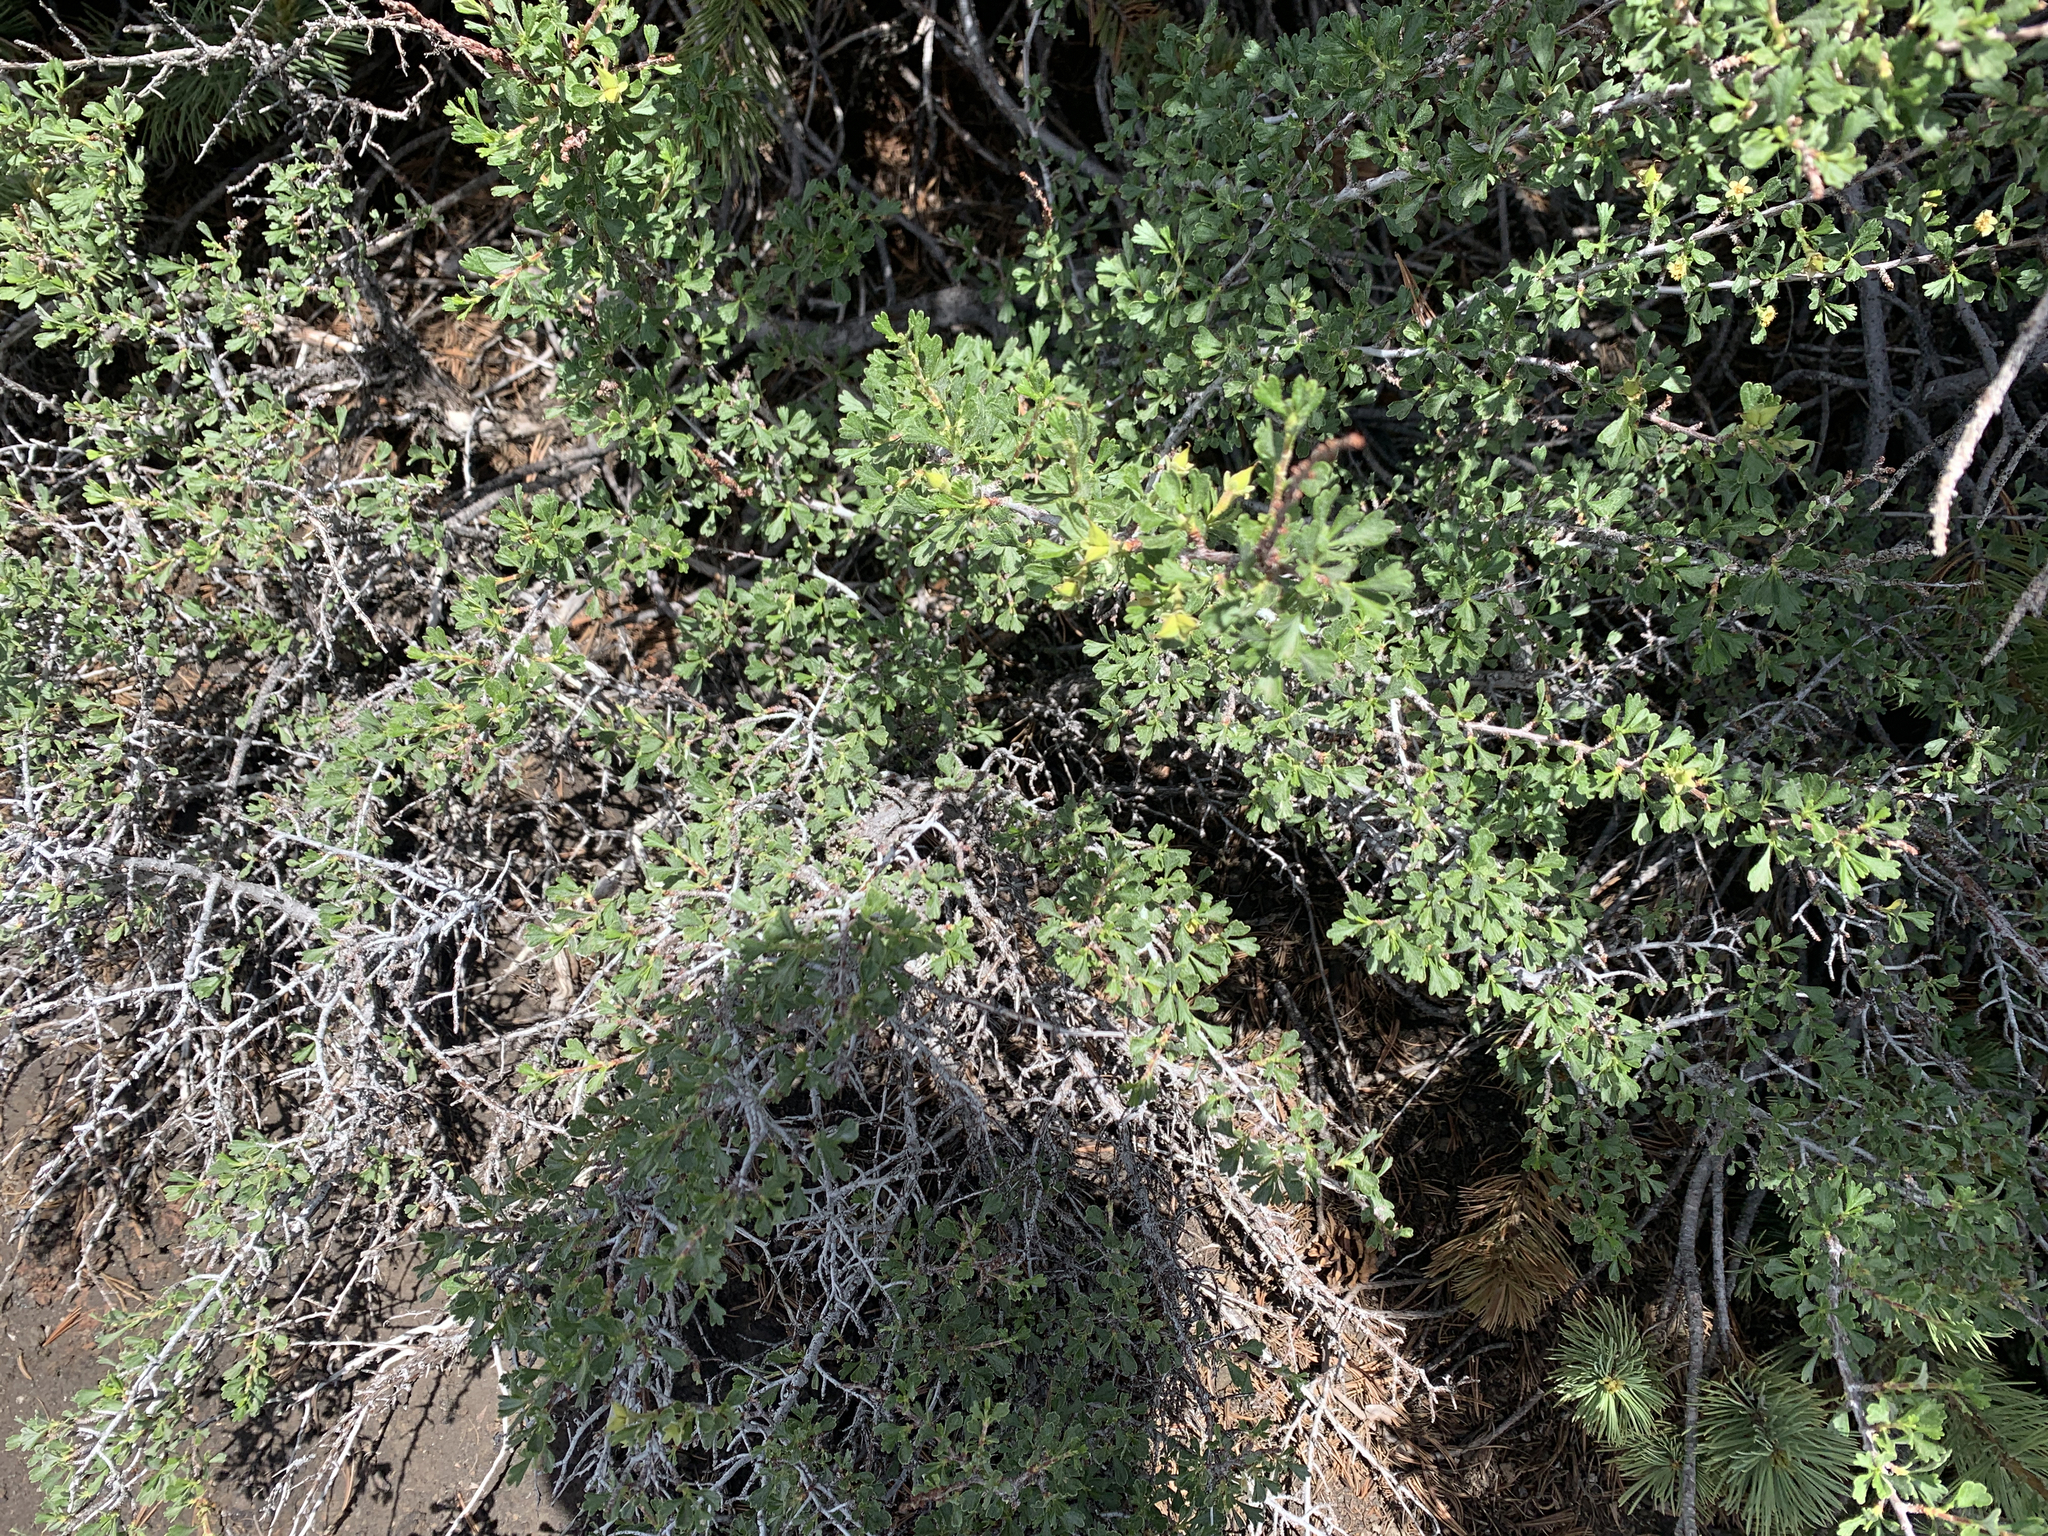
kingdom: Plantae
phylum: Tracheophyta
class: Magnoliopsida
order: Rosales
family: Rosaceae
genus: Purshia
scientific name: Purshia tridentata
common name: Antelope bitterbrush
